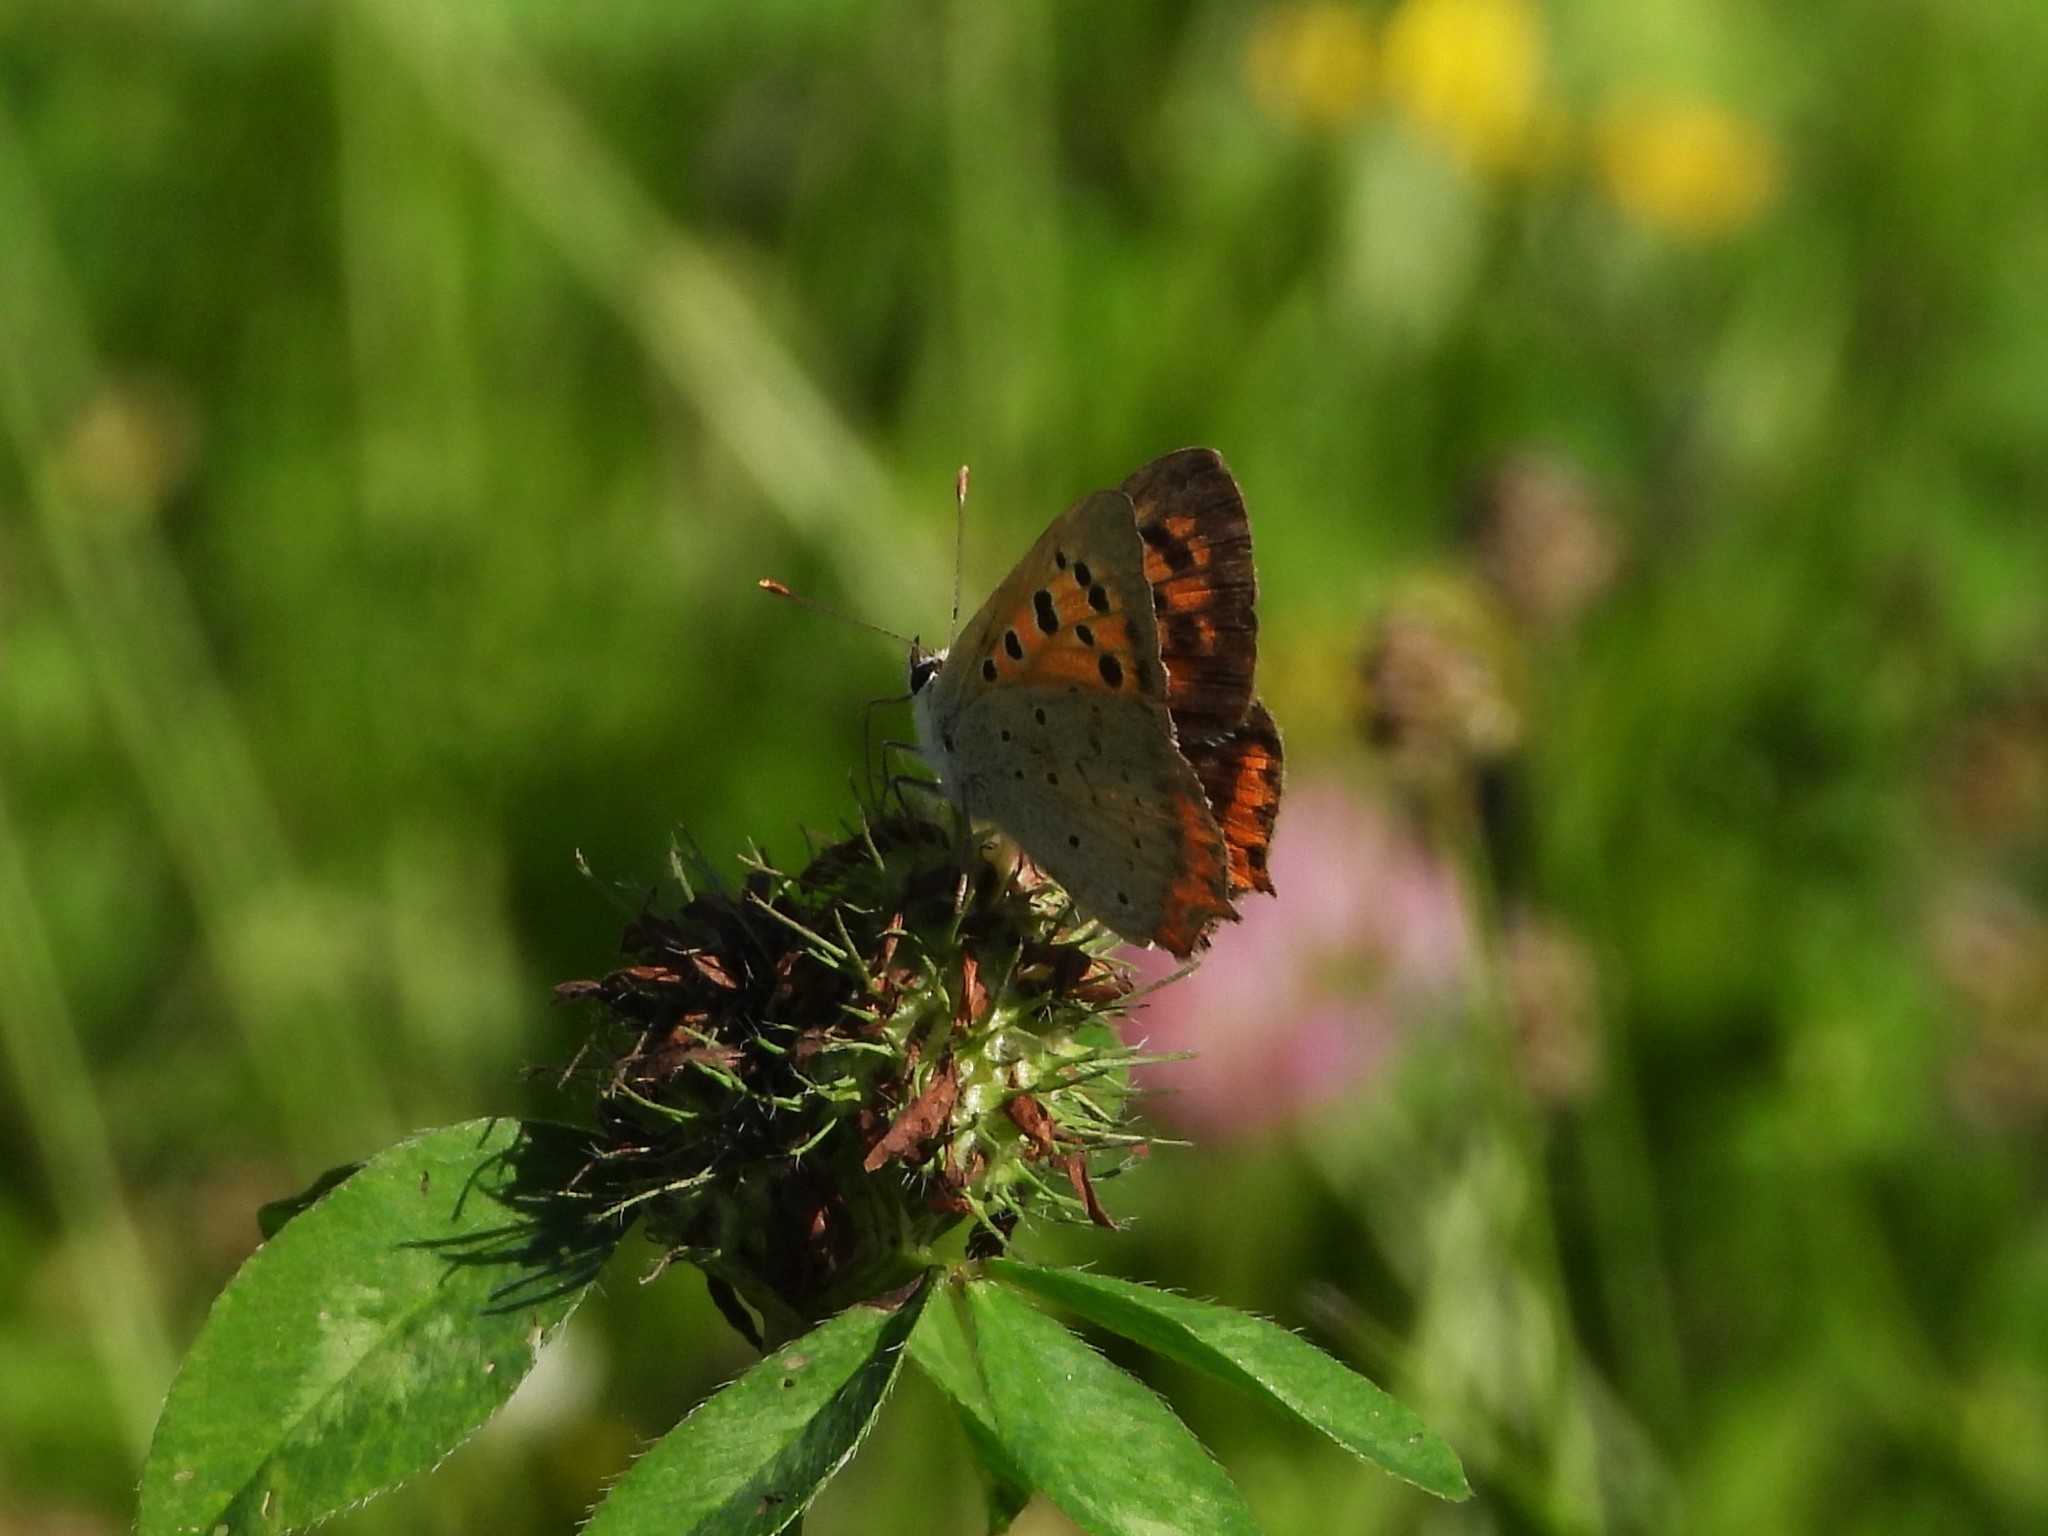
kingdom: Animalia
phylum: Arthropoda
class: Insecta
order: Lepidoptera
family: Lycaenidae
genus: Lycaena
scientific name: Lycaena phlaeas
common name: Small copper
